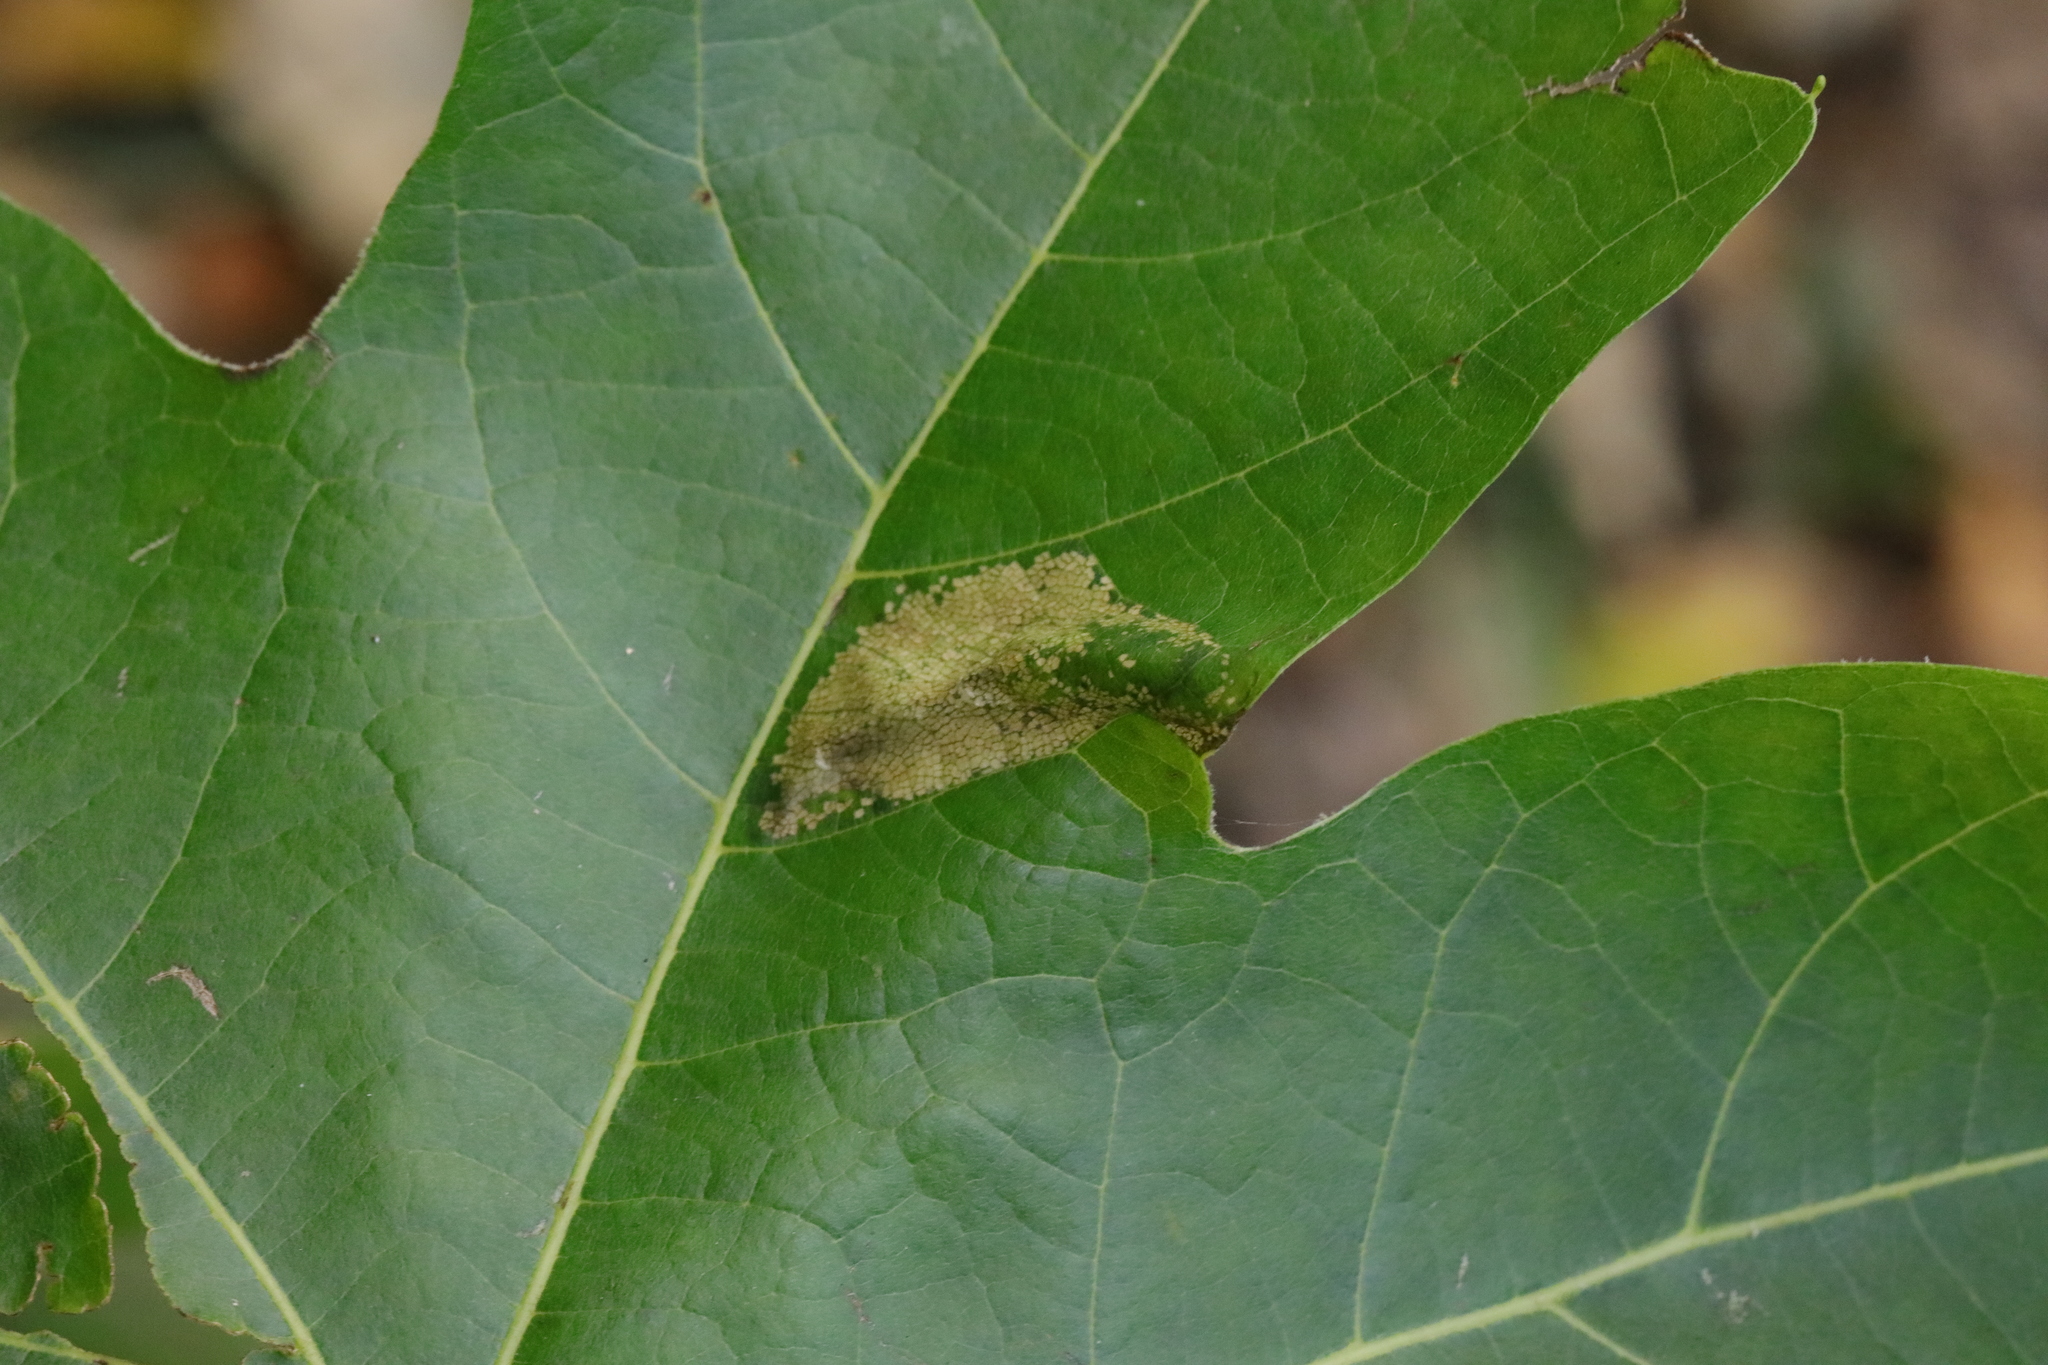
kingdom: Animalia
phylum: Arthropoda
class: Insecta
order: Lepidoptera
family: Gracillariidae
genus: Phyllonorycter
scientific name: Phyllonorycter platani
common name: London midget
